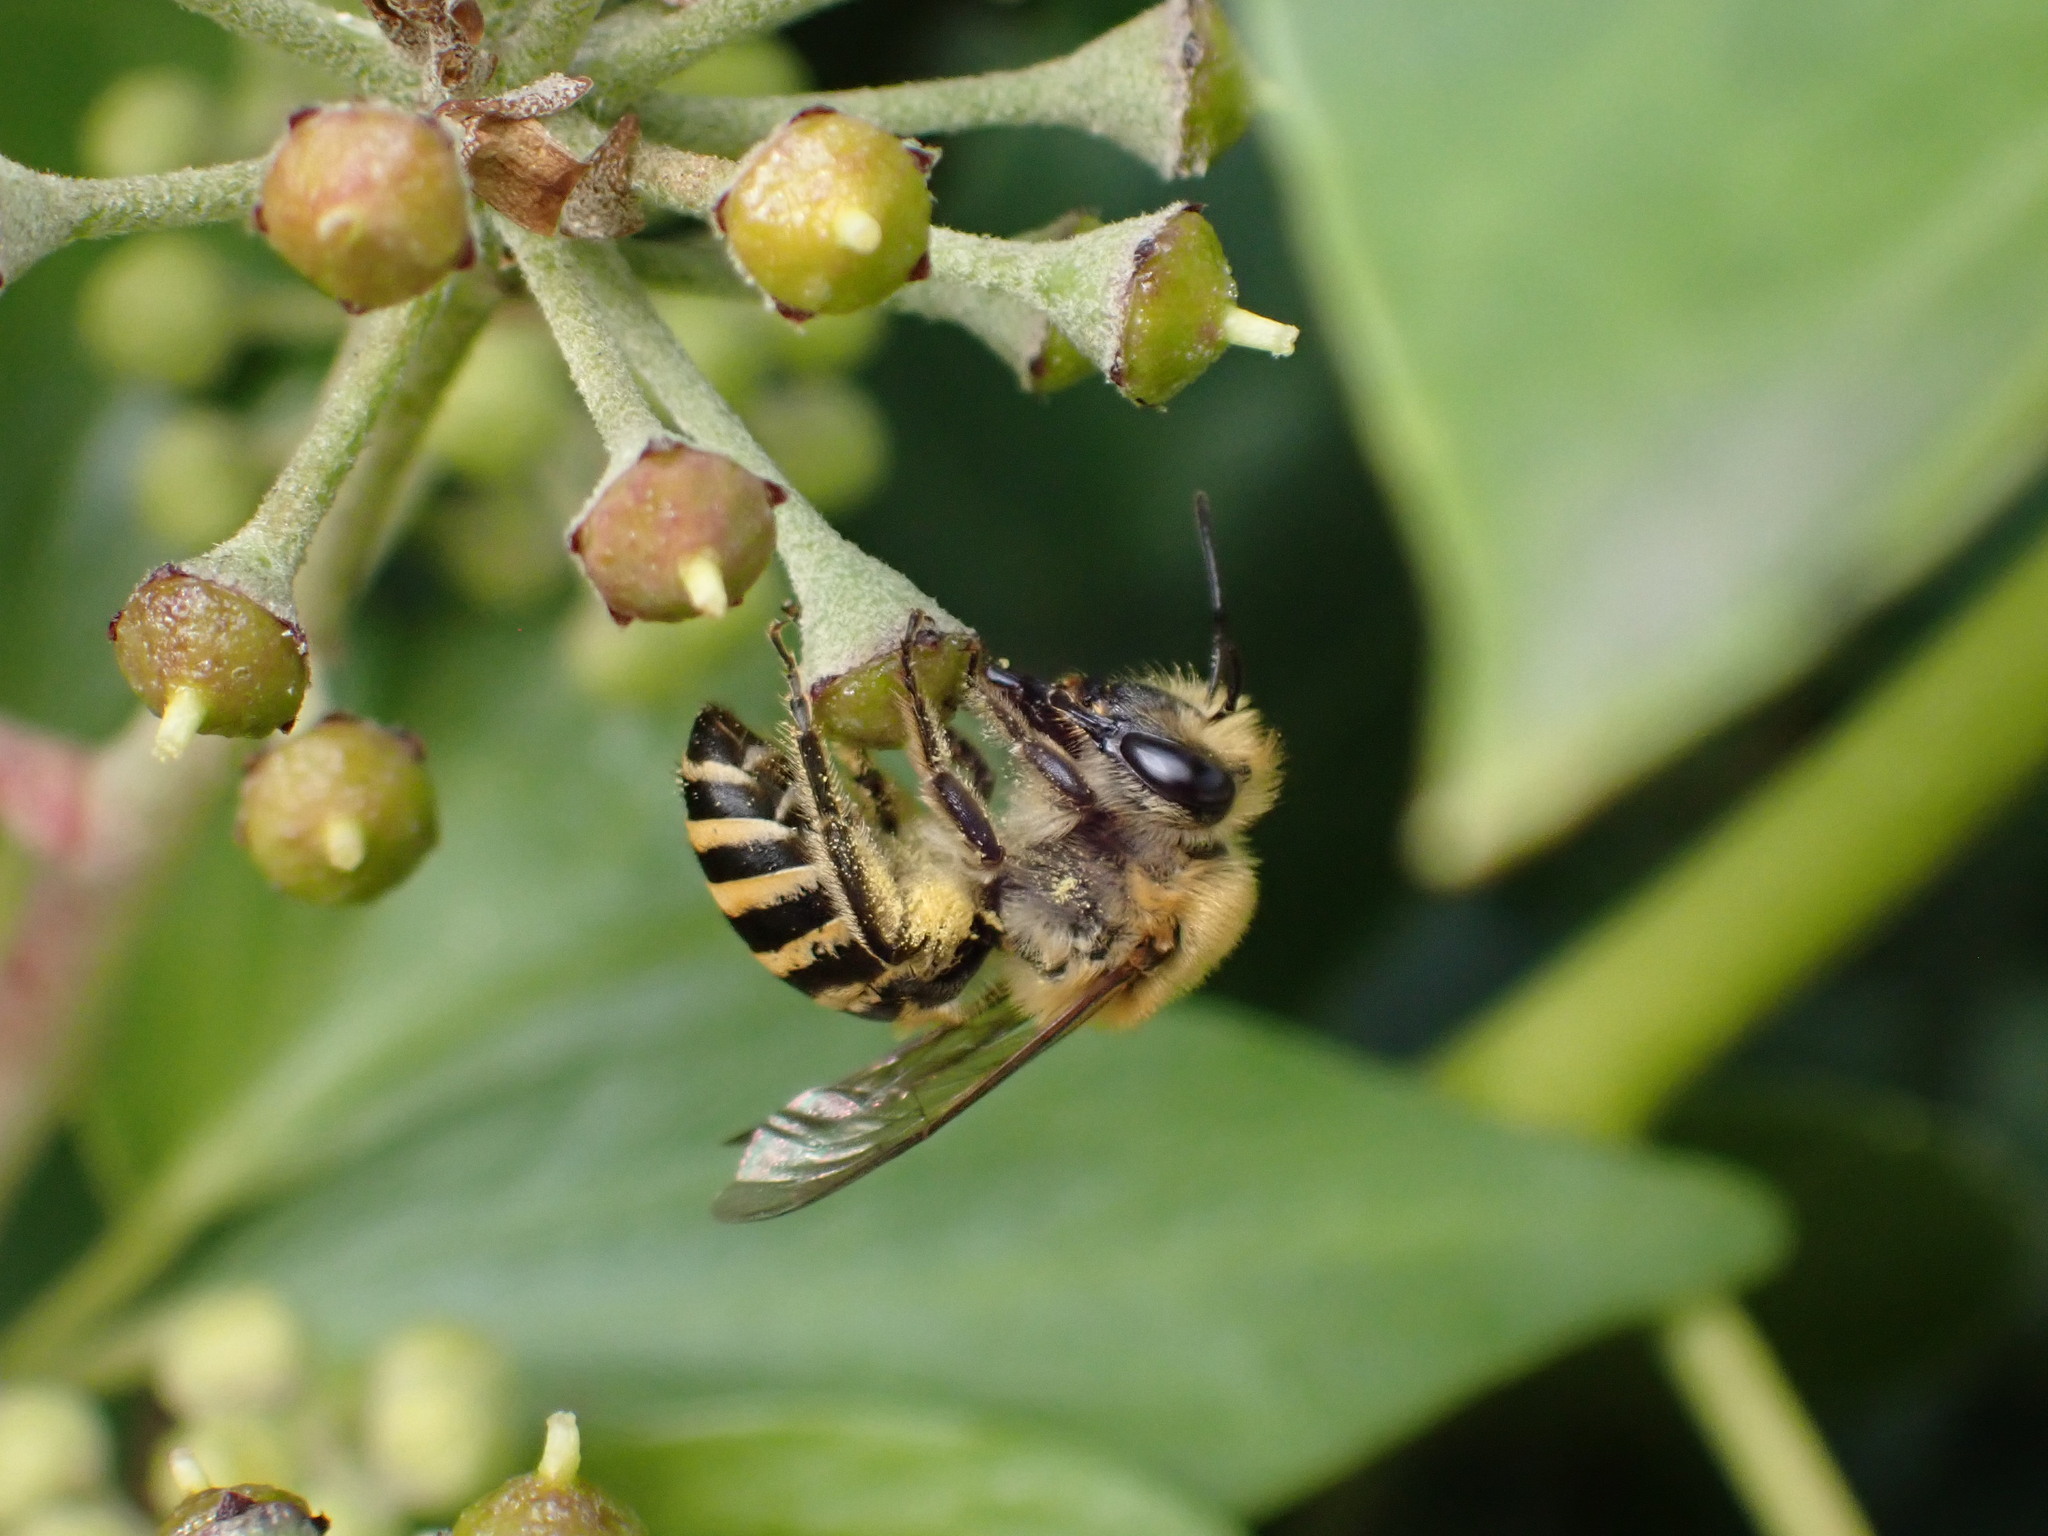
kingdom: Animalia
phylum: Arthropoda
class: Insecta
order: Hymenoptera
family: Colletidae
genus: Colletes
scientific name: Colletes hederae
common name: Ivy bee
